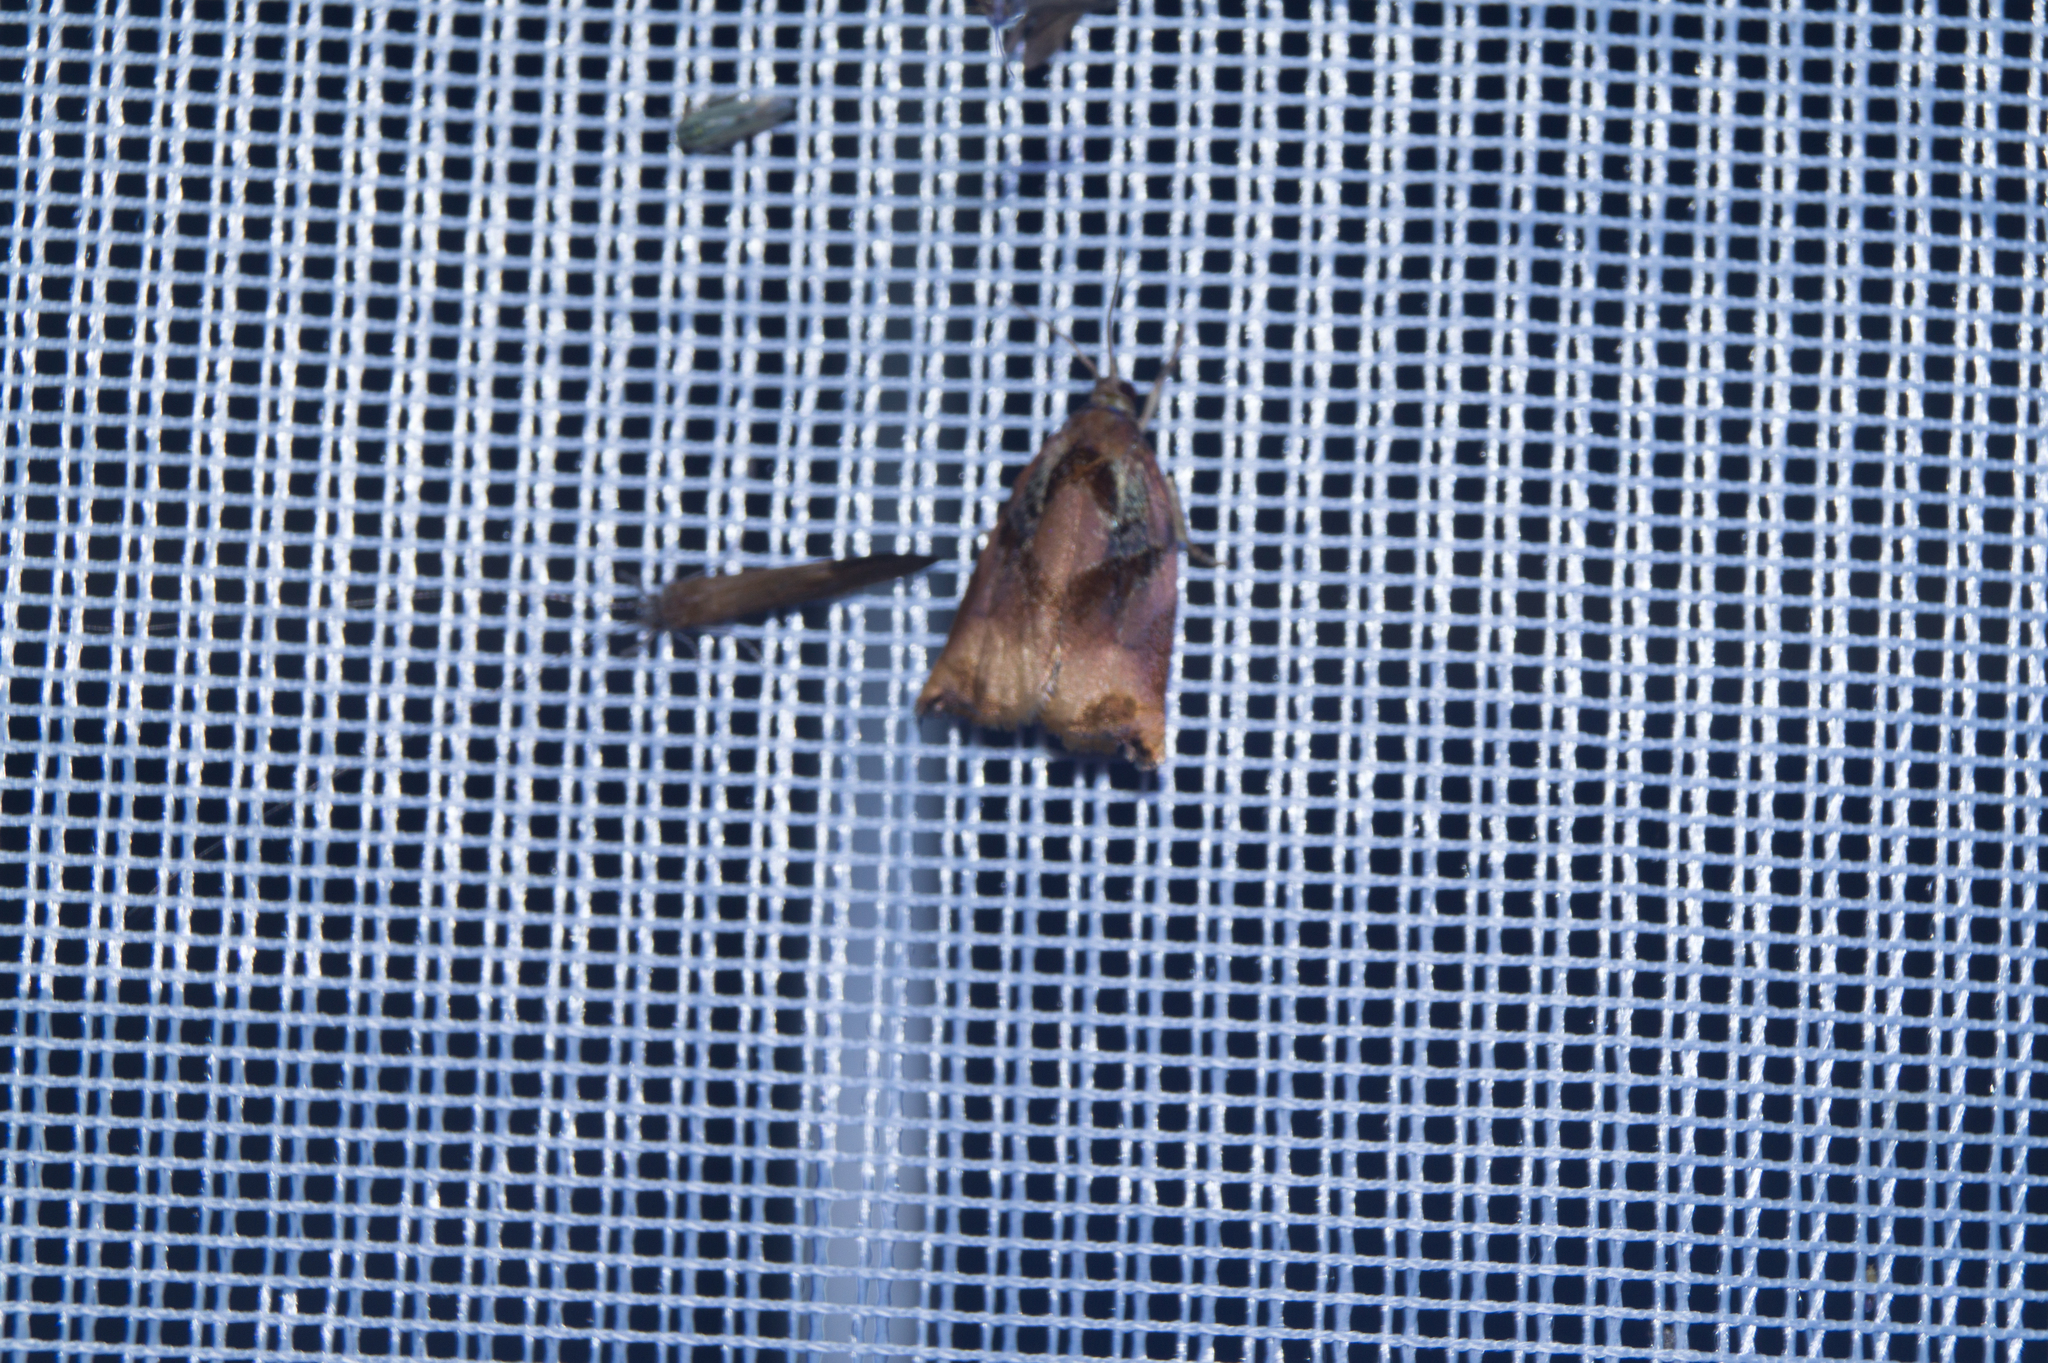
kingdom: Animalia
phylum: Arthropoda
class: Insecta
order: Lepidoptera
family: Tortricidae
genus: Archips
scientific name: Archips podana
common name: Large fruit-tree tortrix
